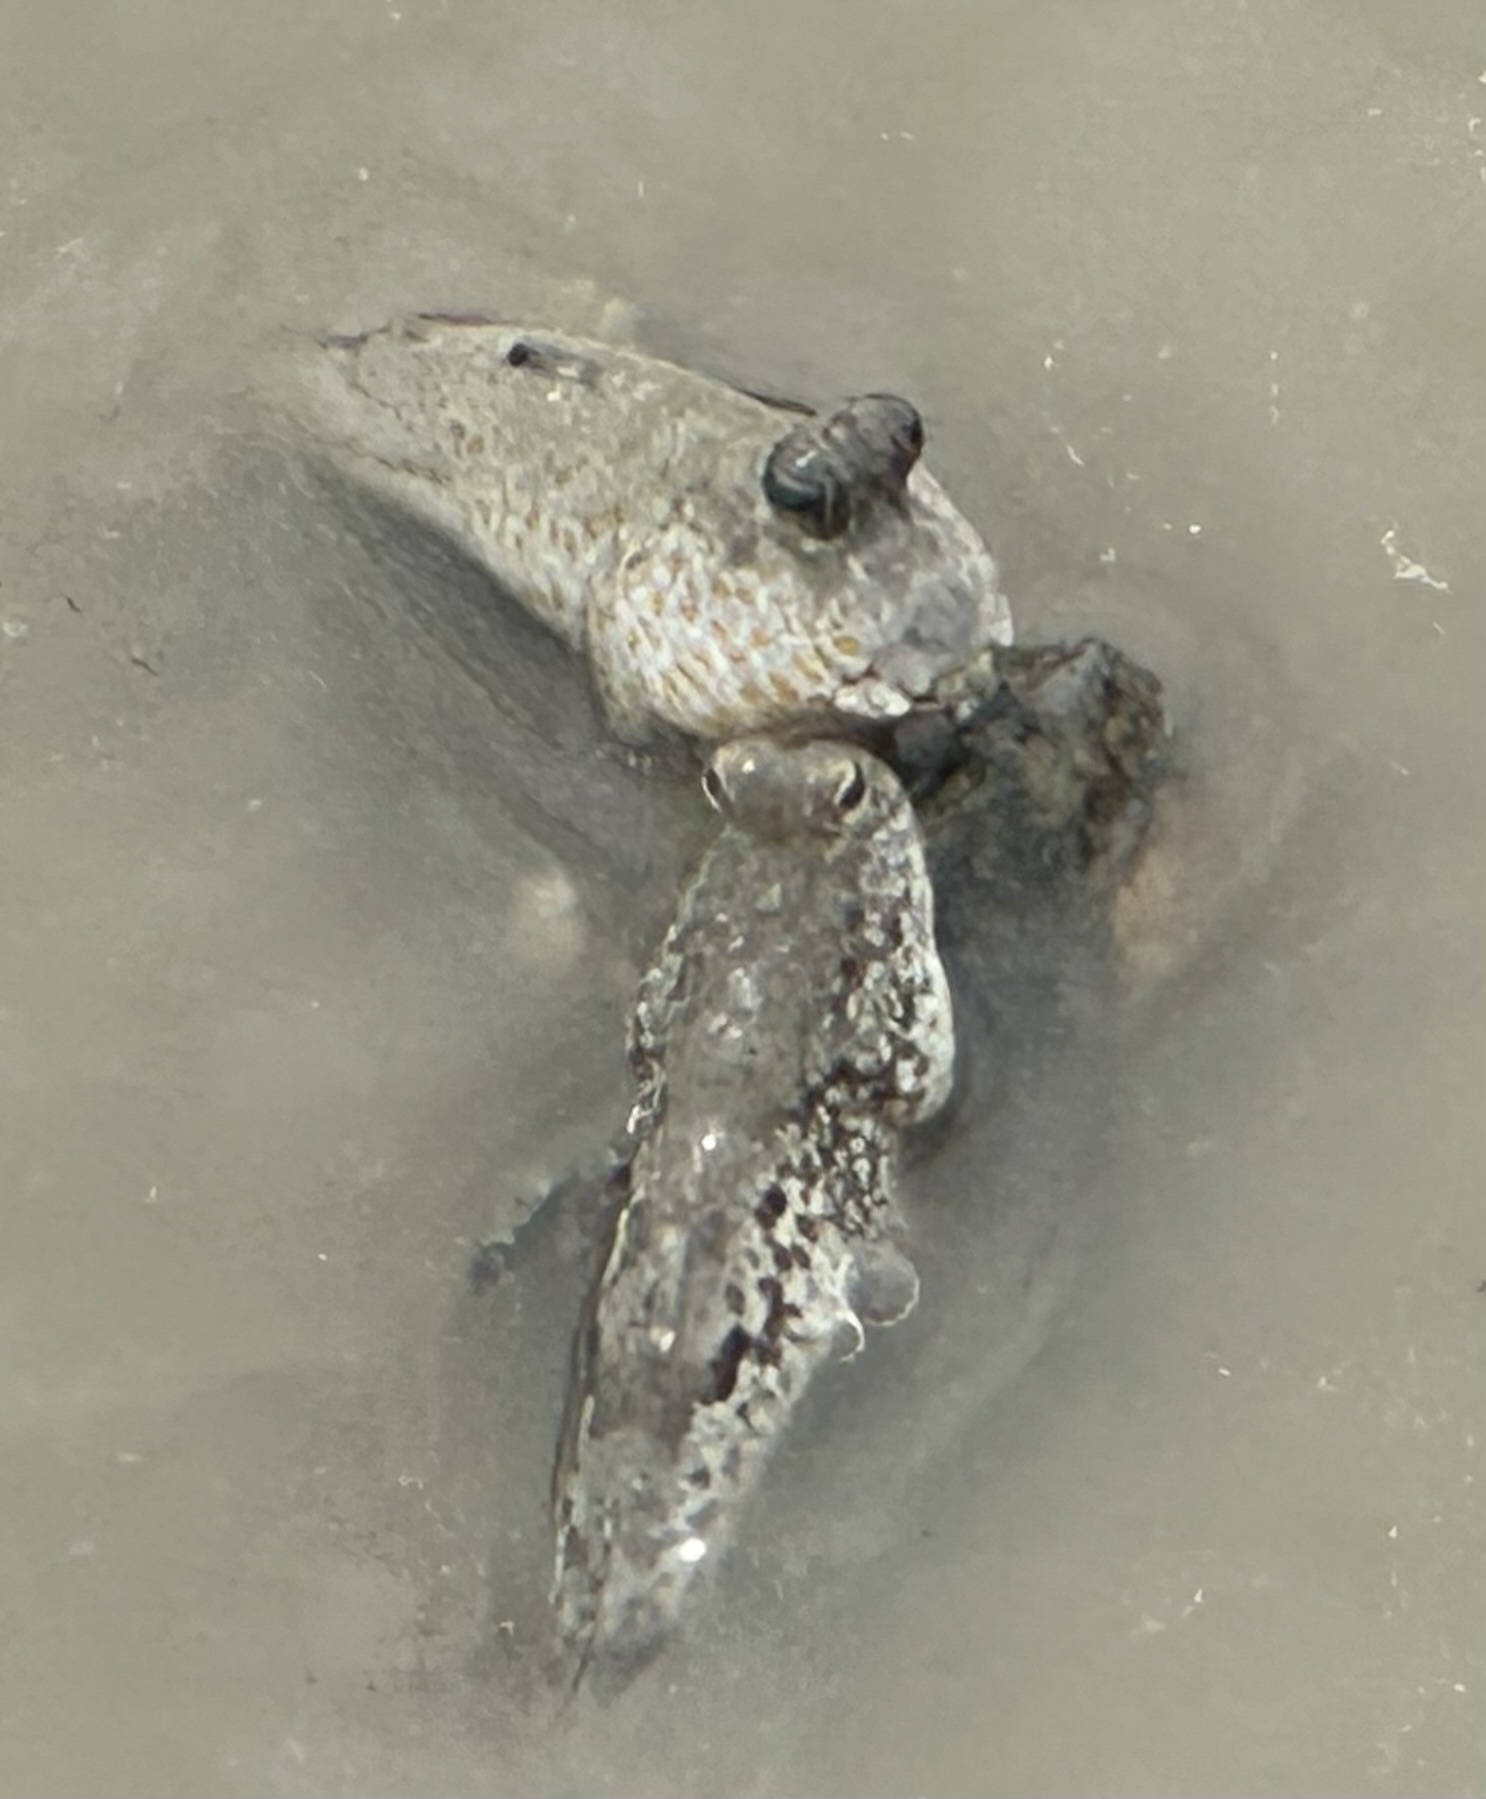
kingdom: Animalia
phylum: Chordata
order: Perciformes
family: Gobiidae
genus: Periophthalmus
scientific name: Periophthalmus chrysospilos
